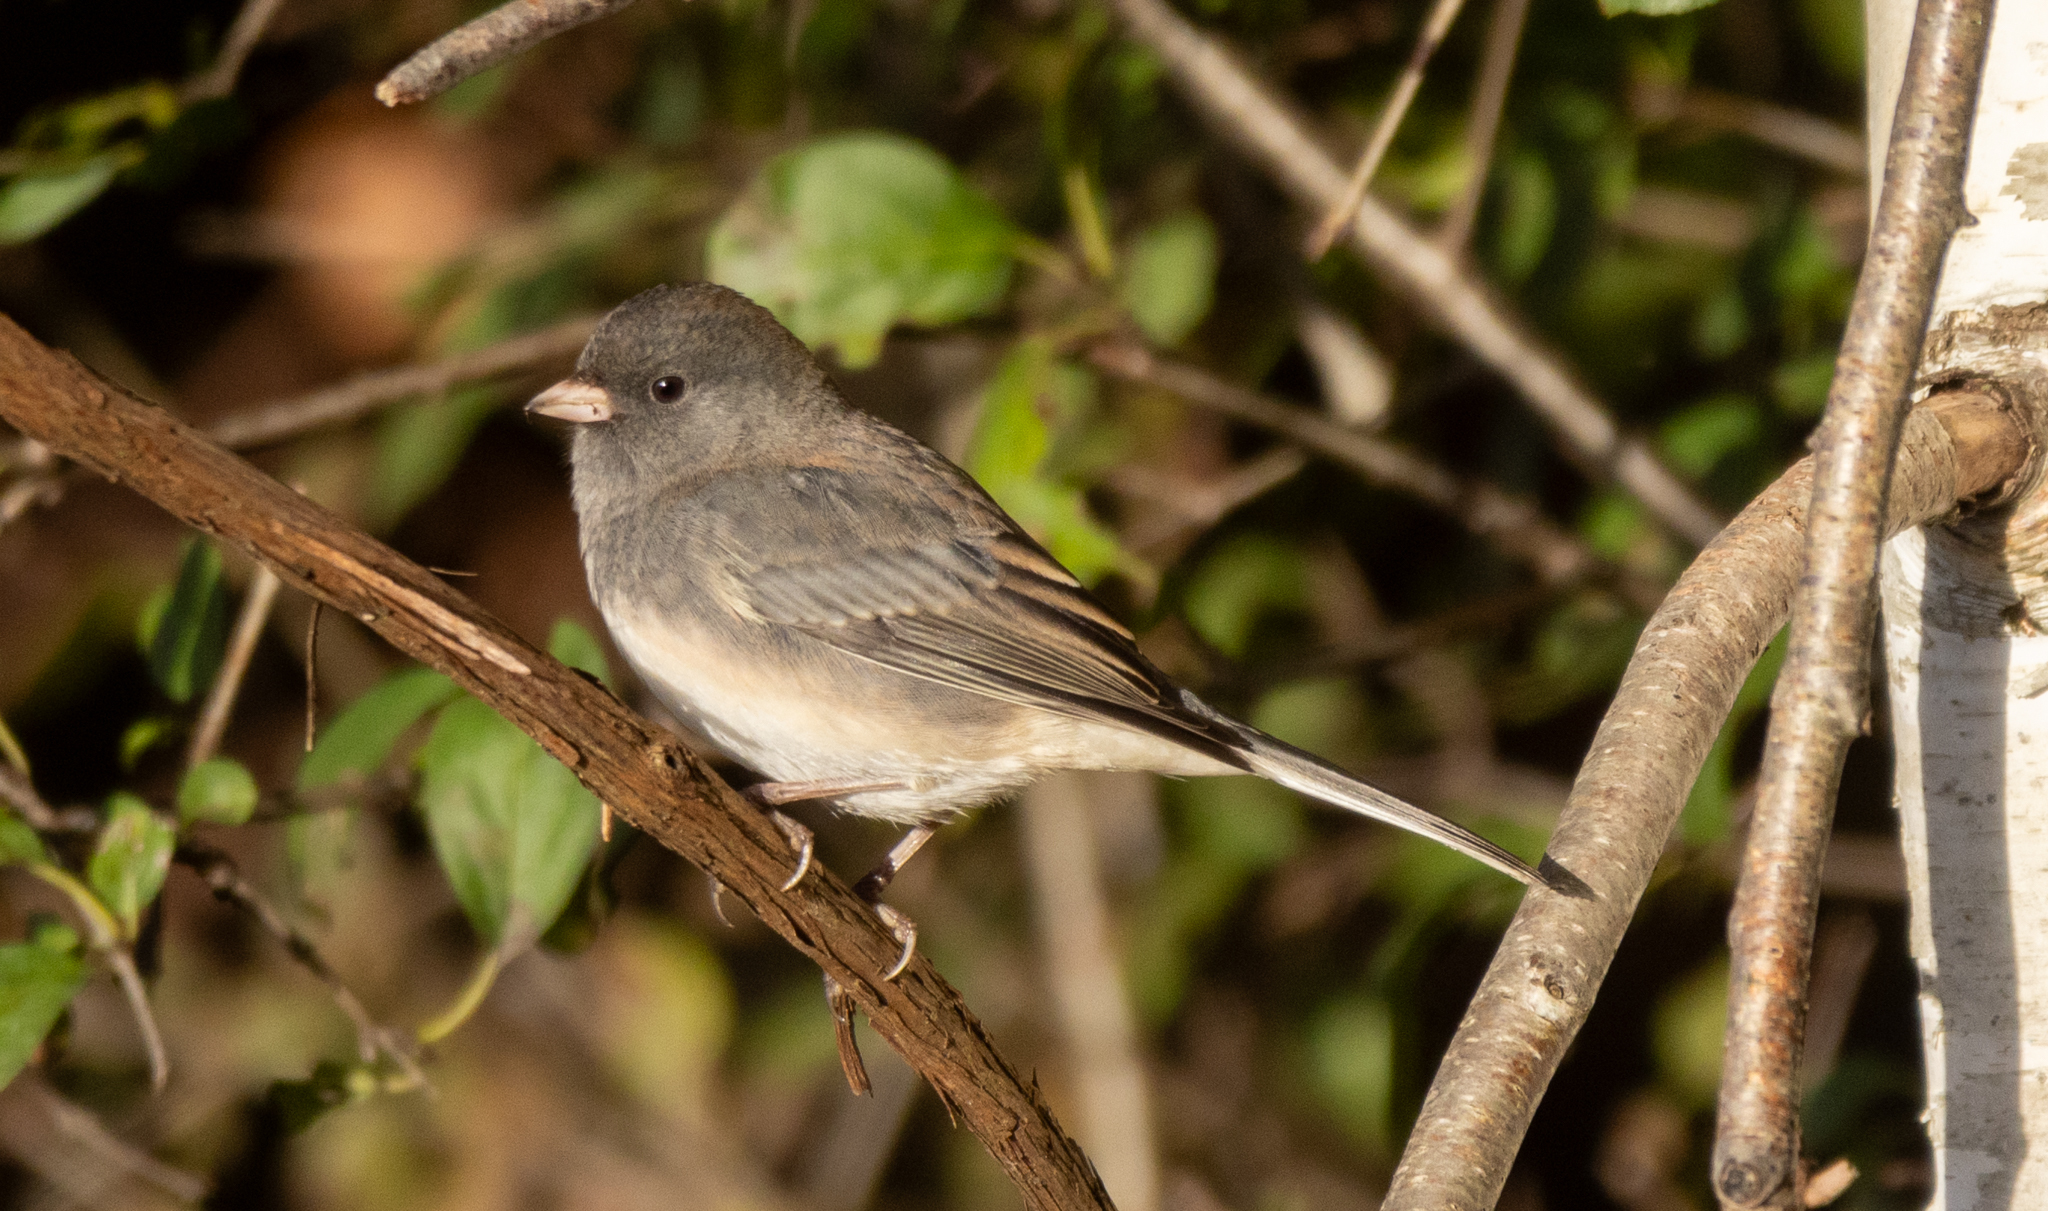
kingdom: Animalia
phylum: Chordata
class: Aves
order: Passeriformes
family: Passerellidae
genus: Junco
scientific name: Junco hyemalis
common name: Dark-eyed junco
